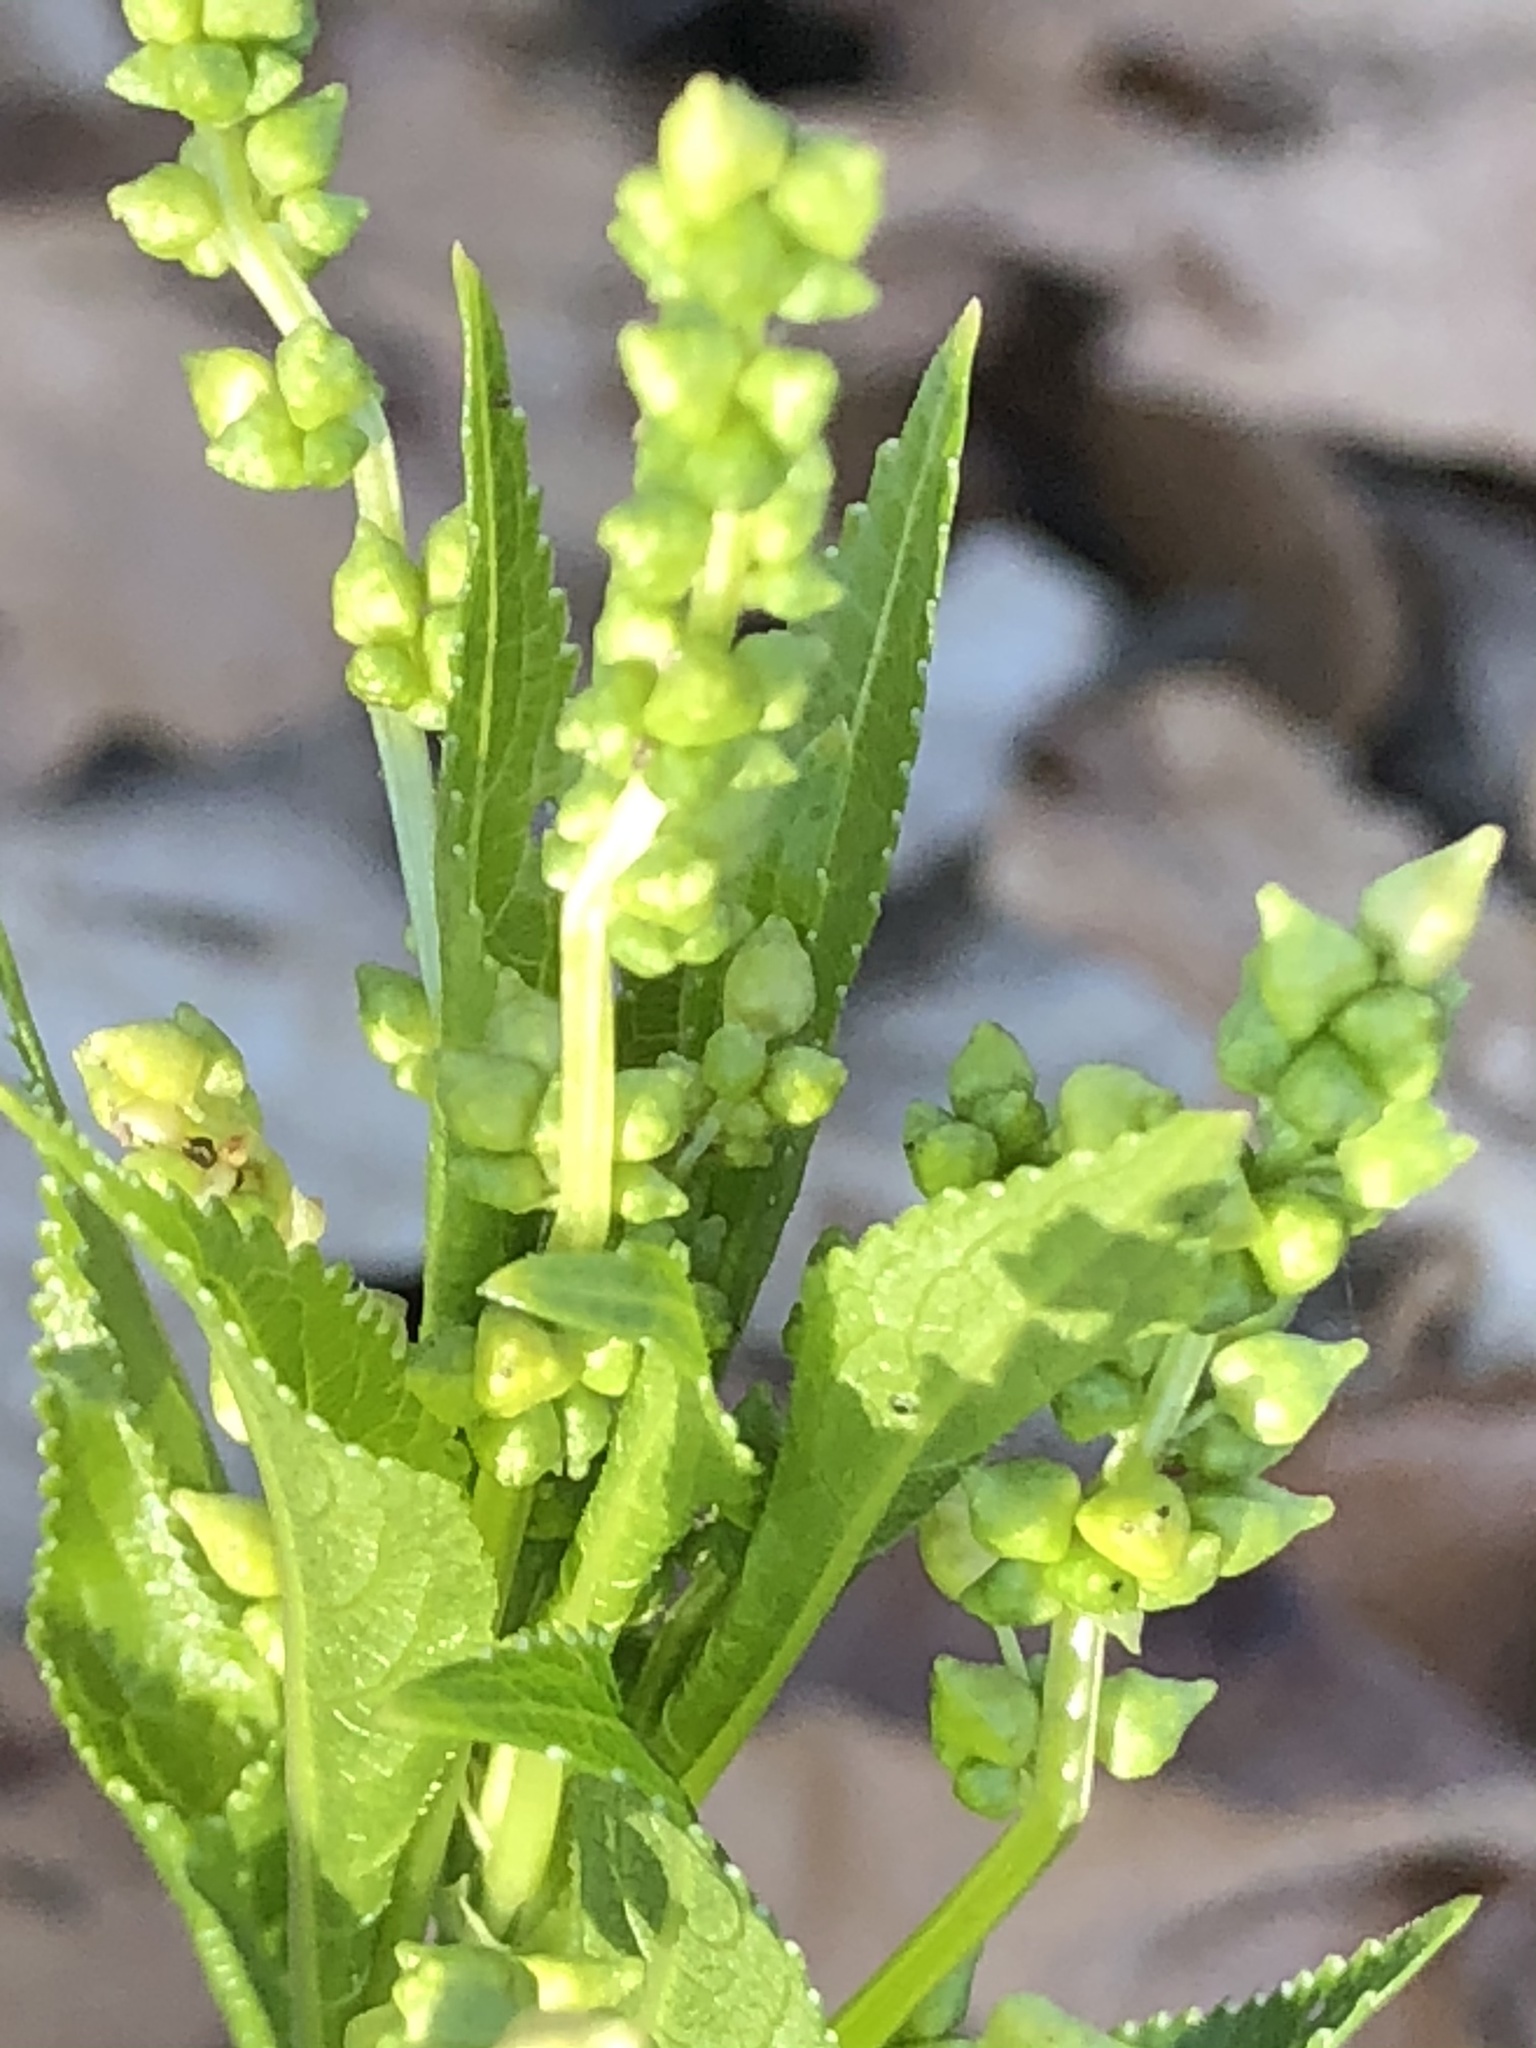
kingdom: Plantae
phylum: Tracheophyta
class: Magnoliopsida
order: Malpighiales
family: Euphorbiaceae
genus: Mercurialis
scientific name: Mercurialis perennis
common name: Dog mercury
